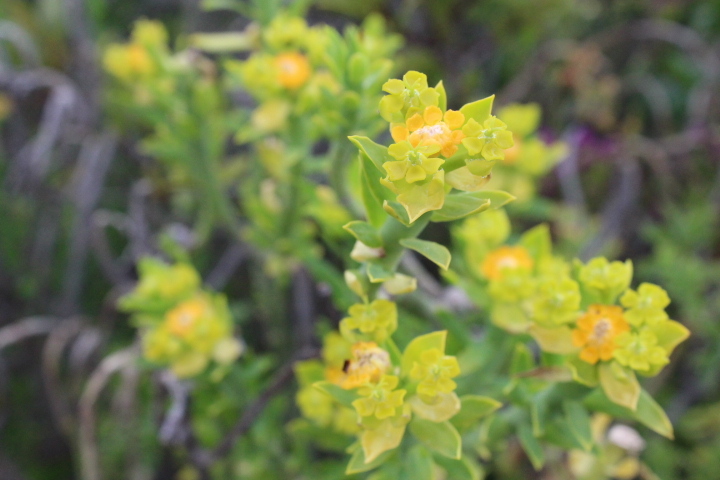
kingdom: Plantae
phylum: Tracheophyta
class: Magnoliopsida
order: Malpighiales
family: Euphorbiaceae
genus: Euphorbia
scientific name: Euphorbia mauritanica
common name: Jackal's-food
